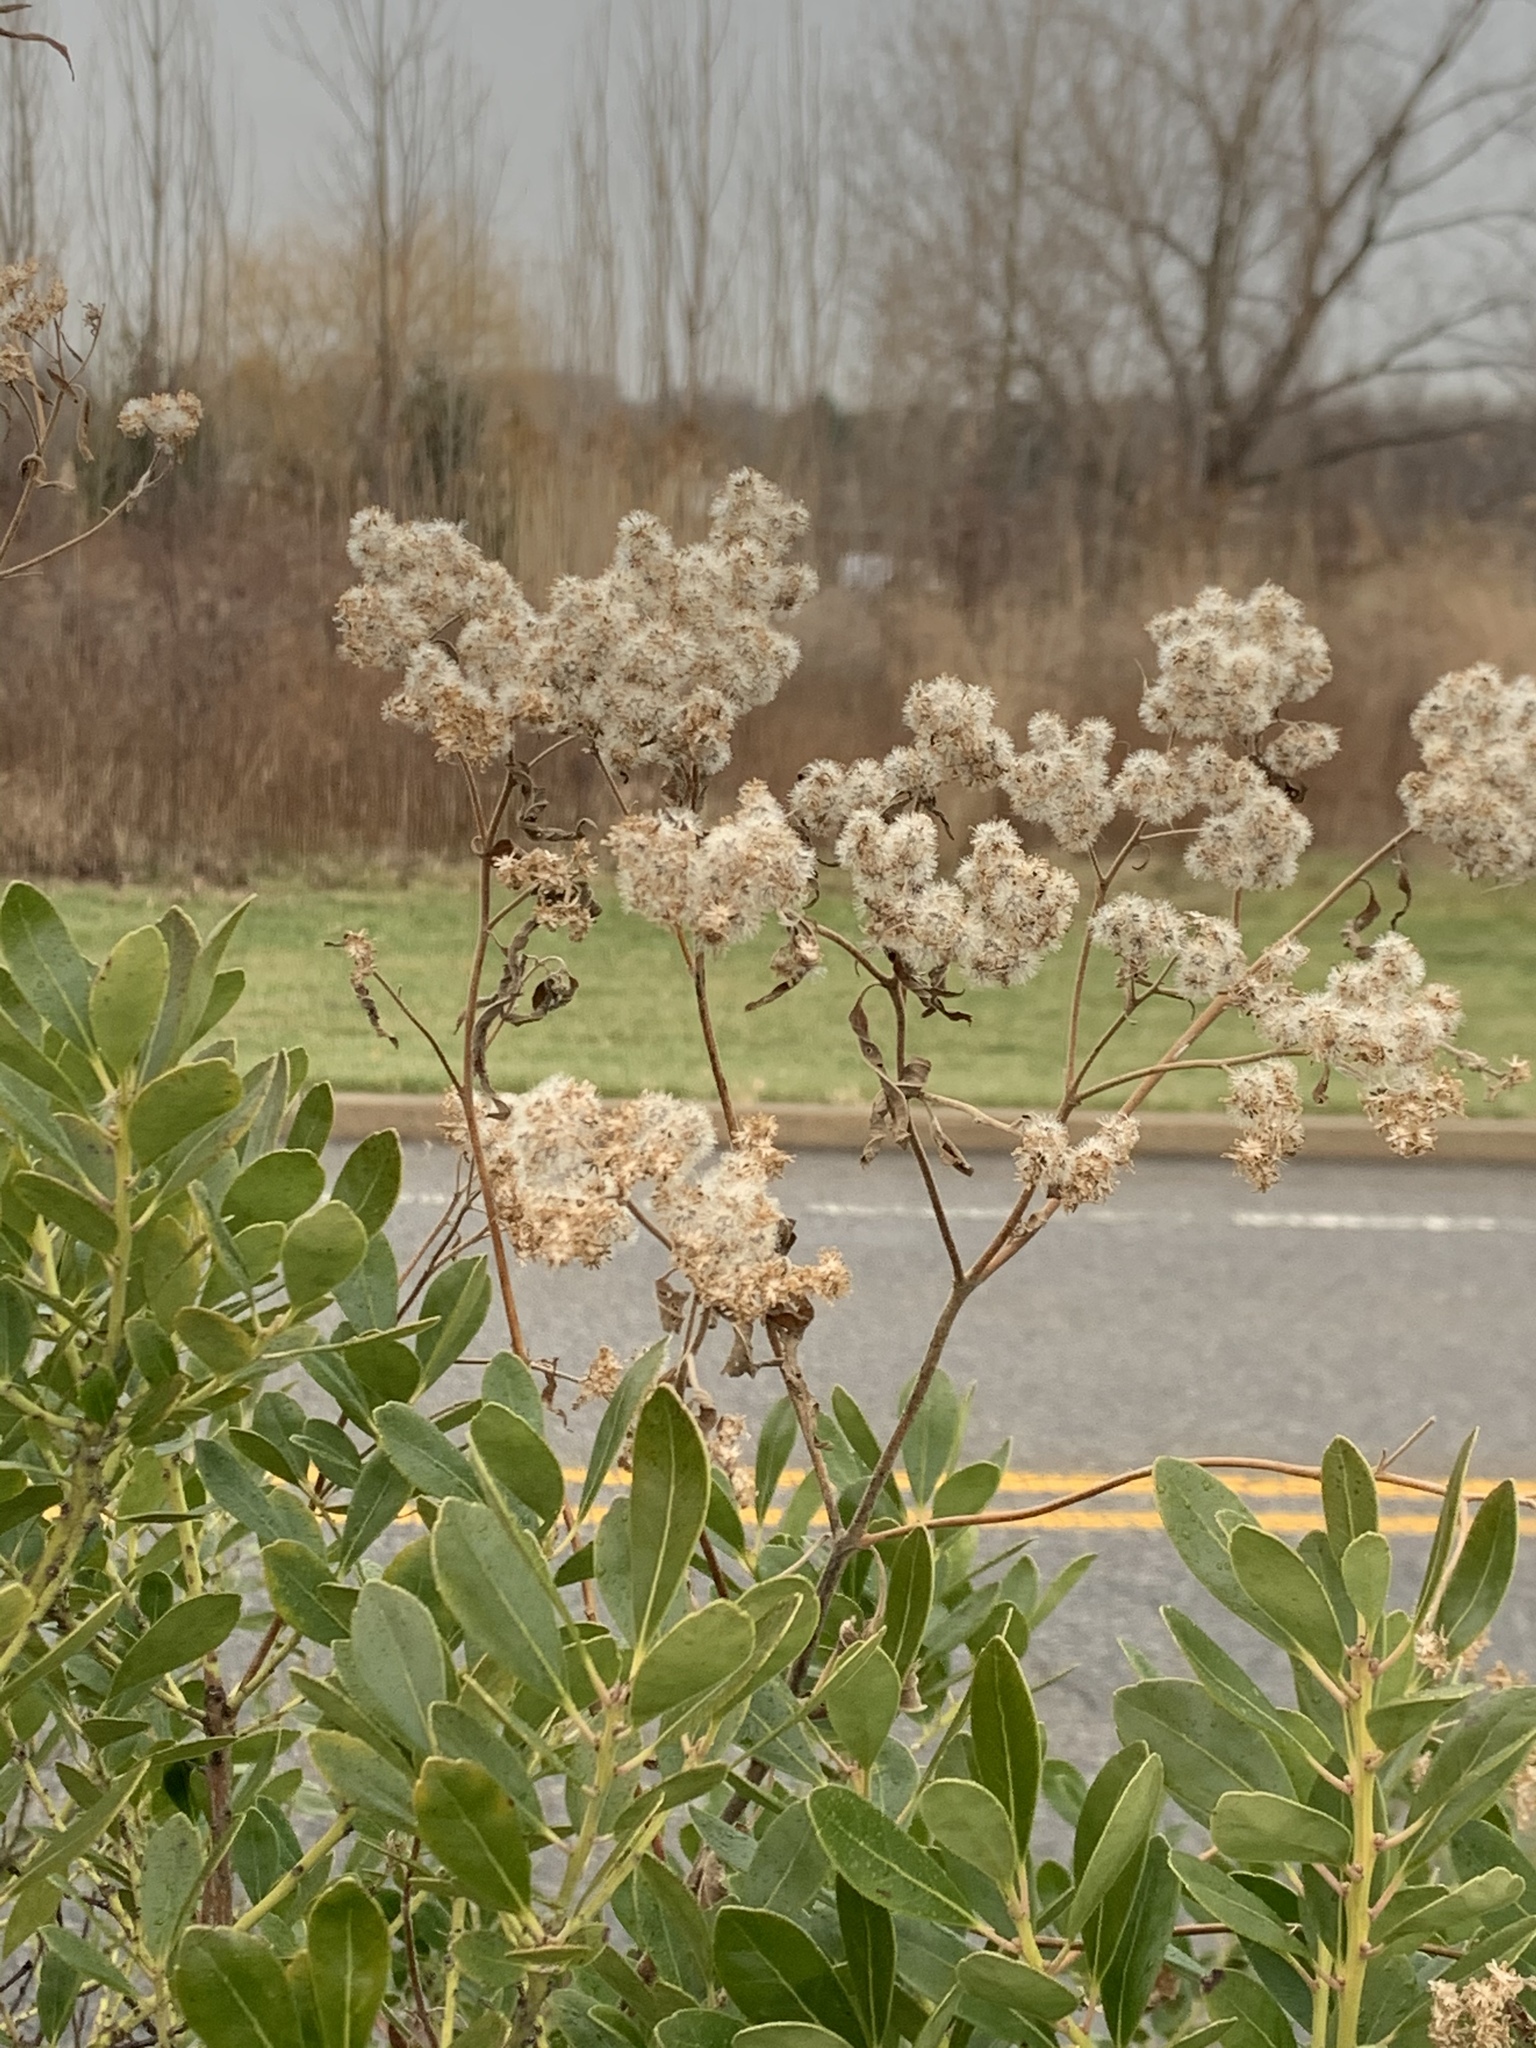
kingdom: Plantae
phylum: Tracheophyta
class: Magnoliopsida
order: Asterales
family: Asteraceae
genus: Eupatorium
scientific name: Eupatorium serotinum
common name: Late boneset
